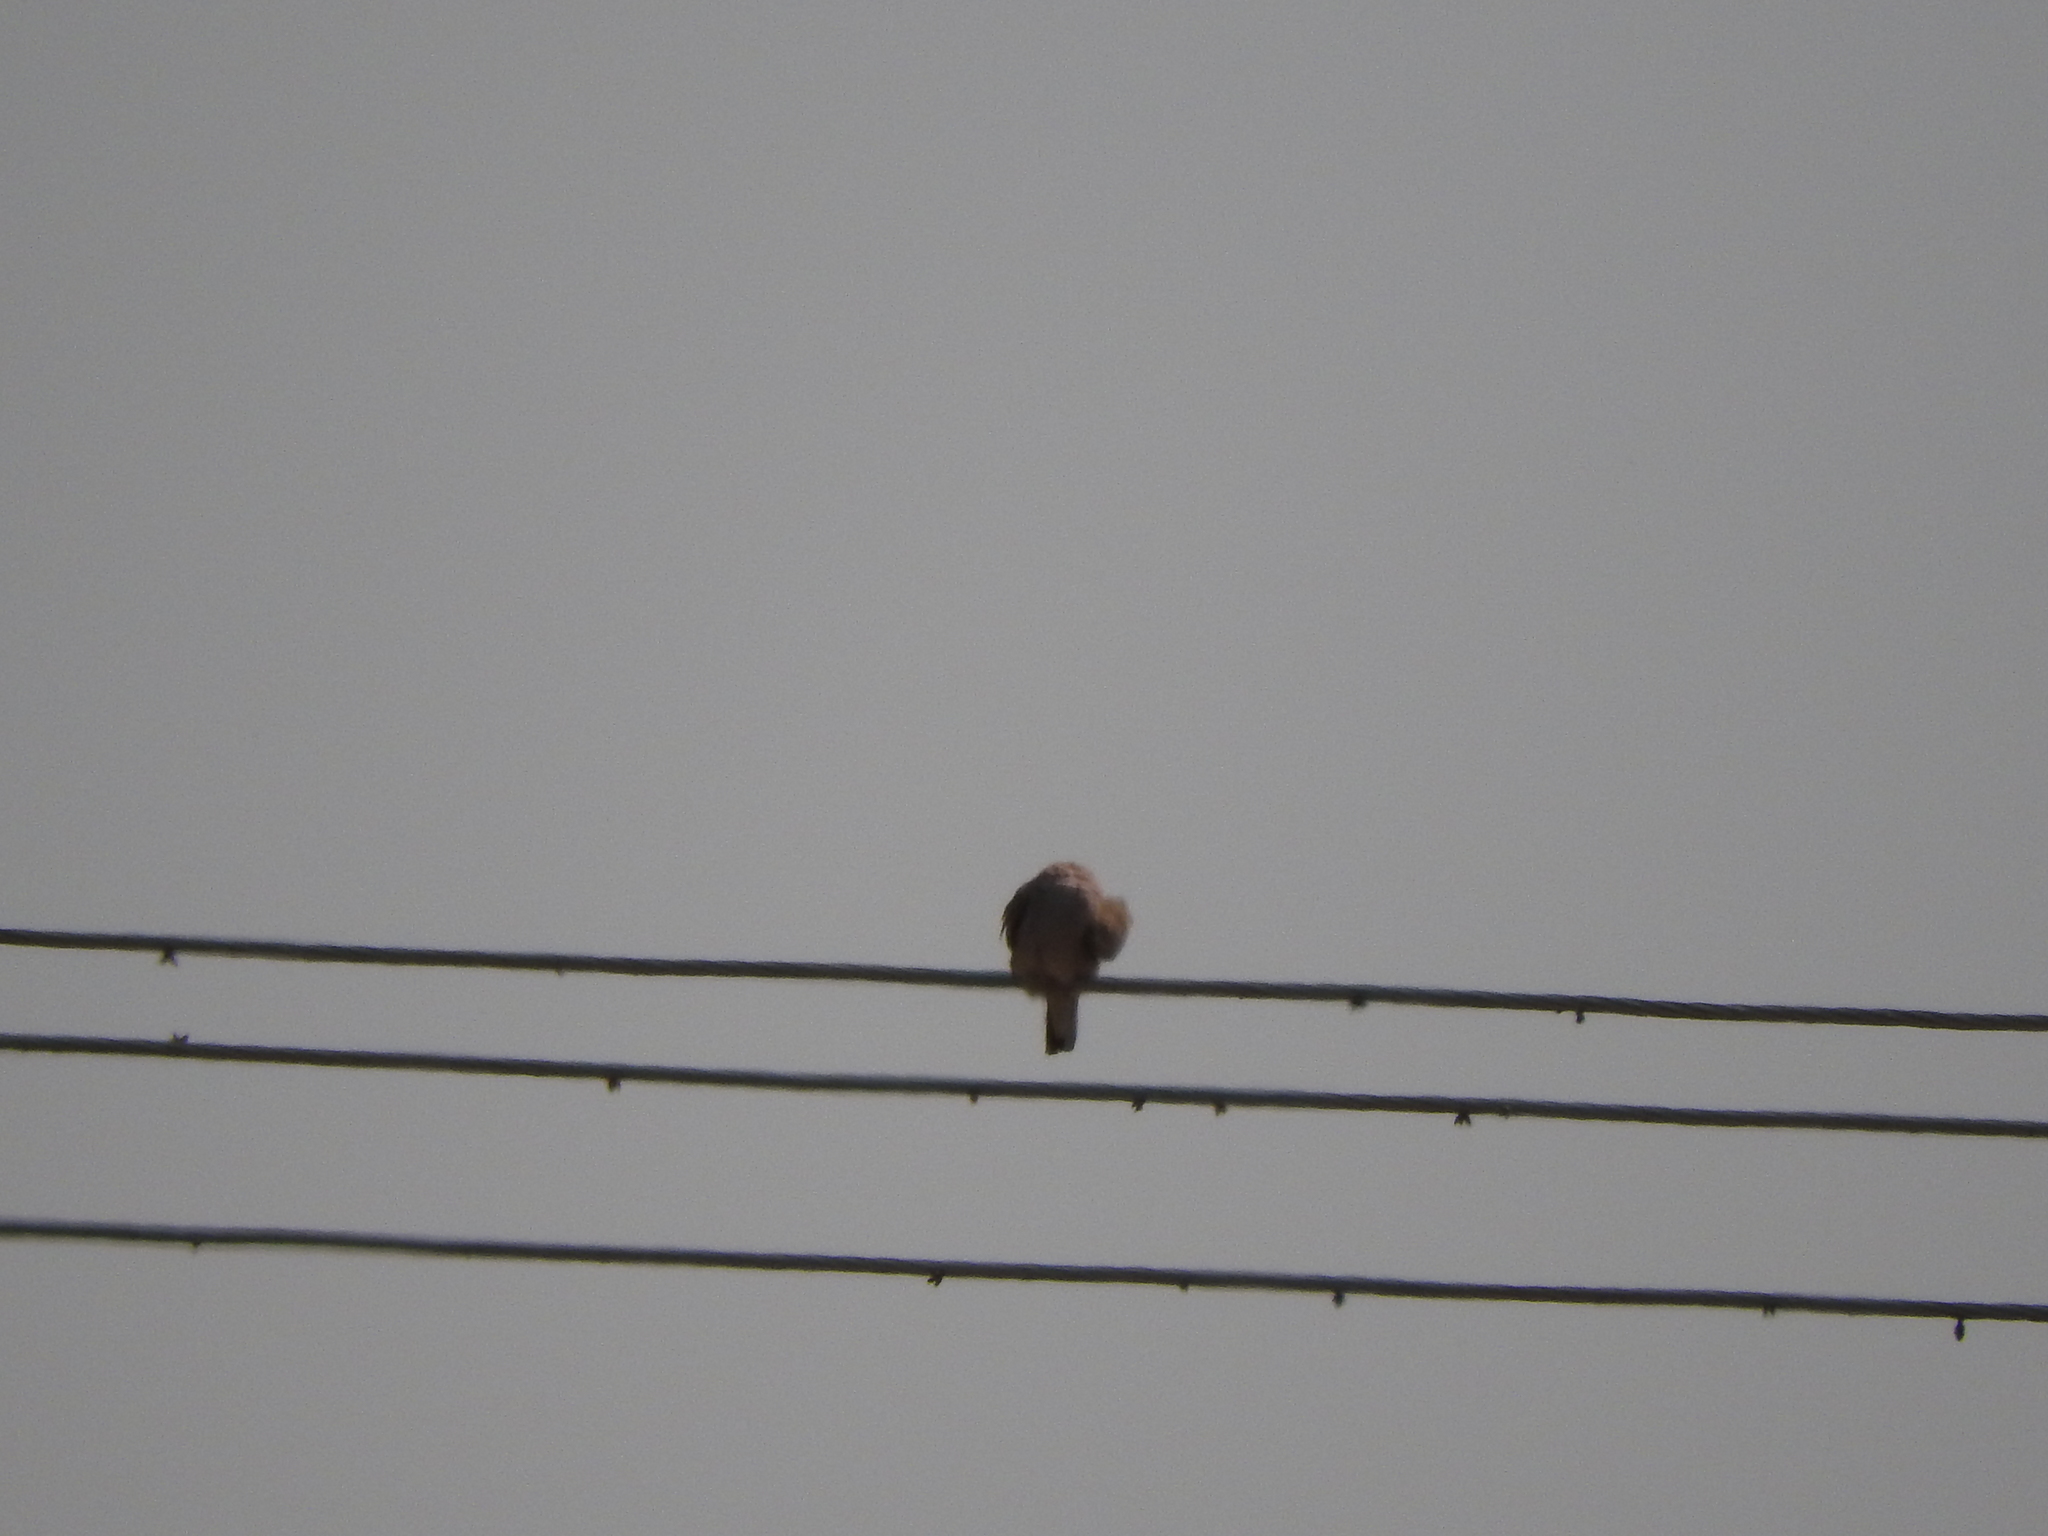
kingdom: Animalia
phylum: Chordata
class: Aves
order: Columbiformes
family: Columbidae
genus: Columbina
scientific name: Columbina inca
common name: Inca dove
